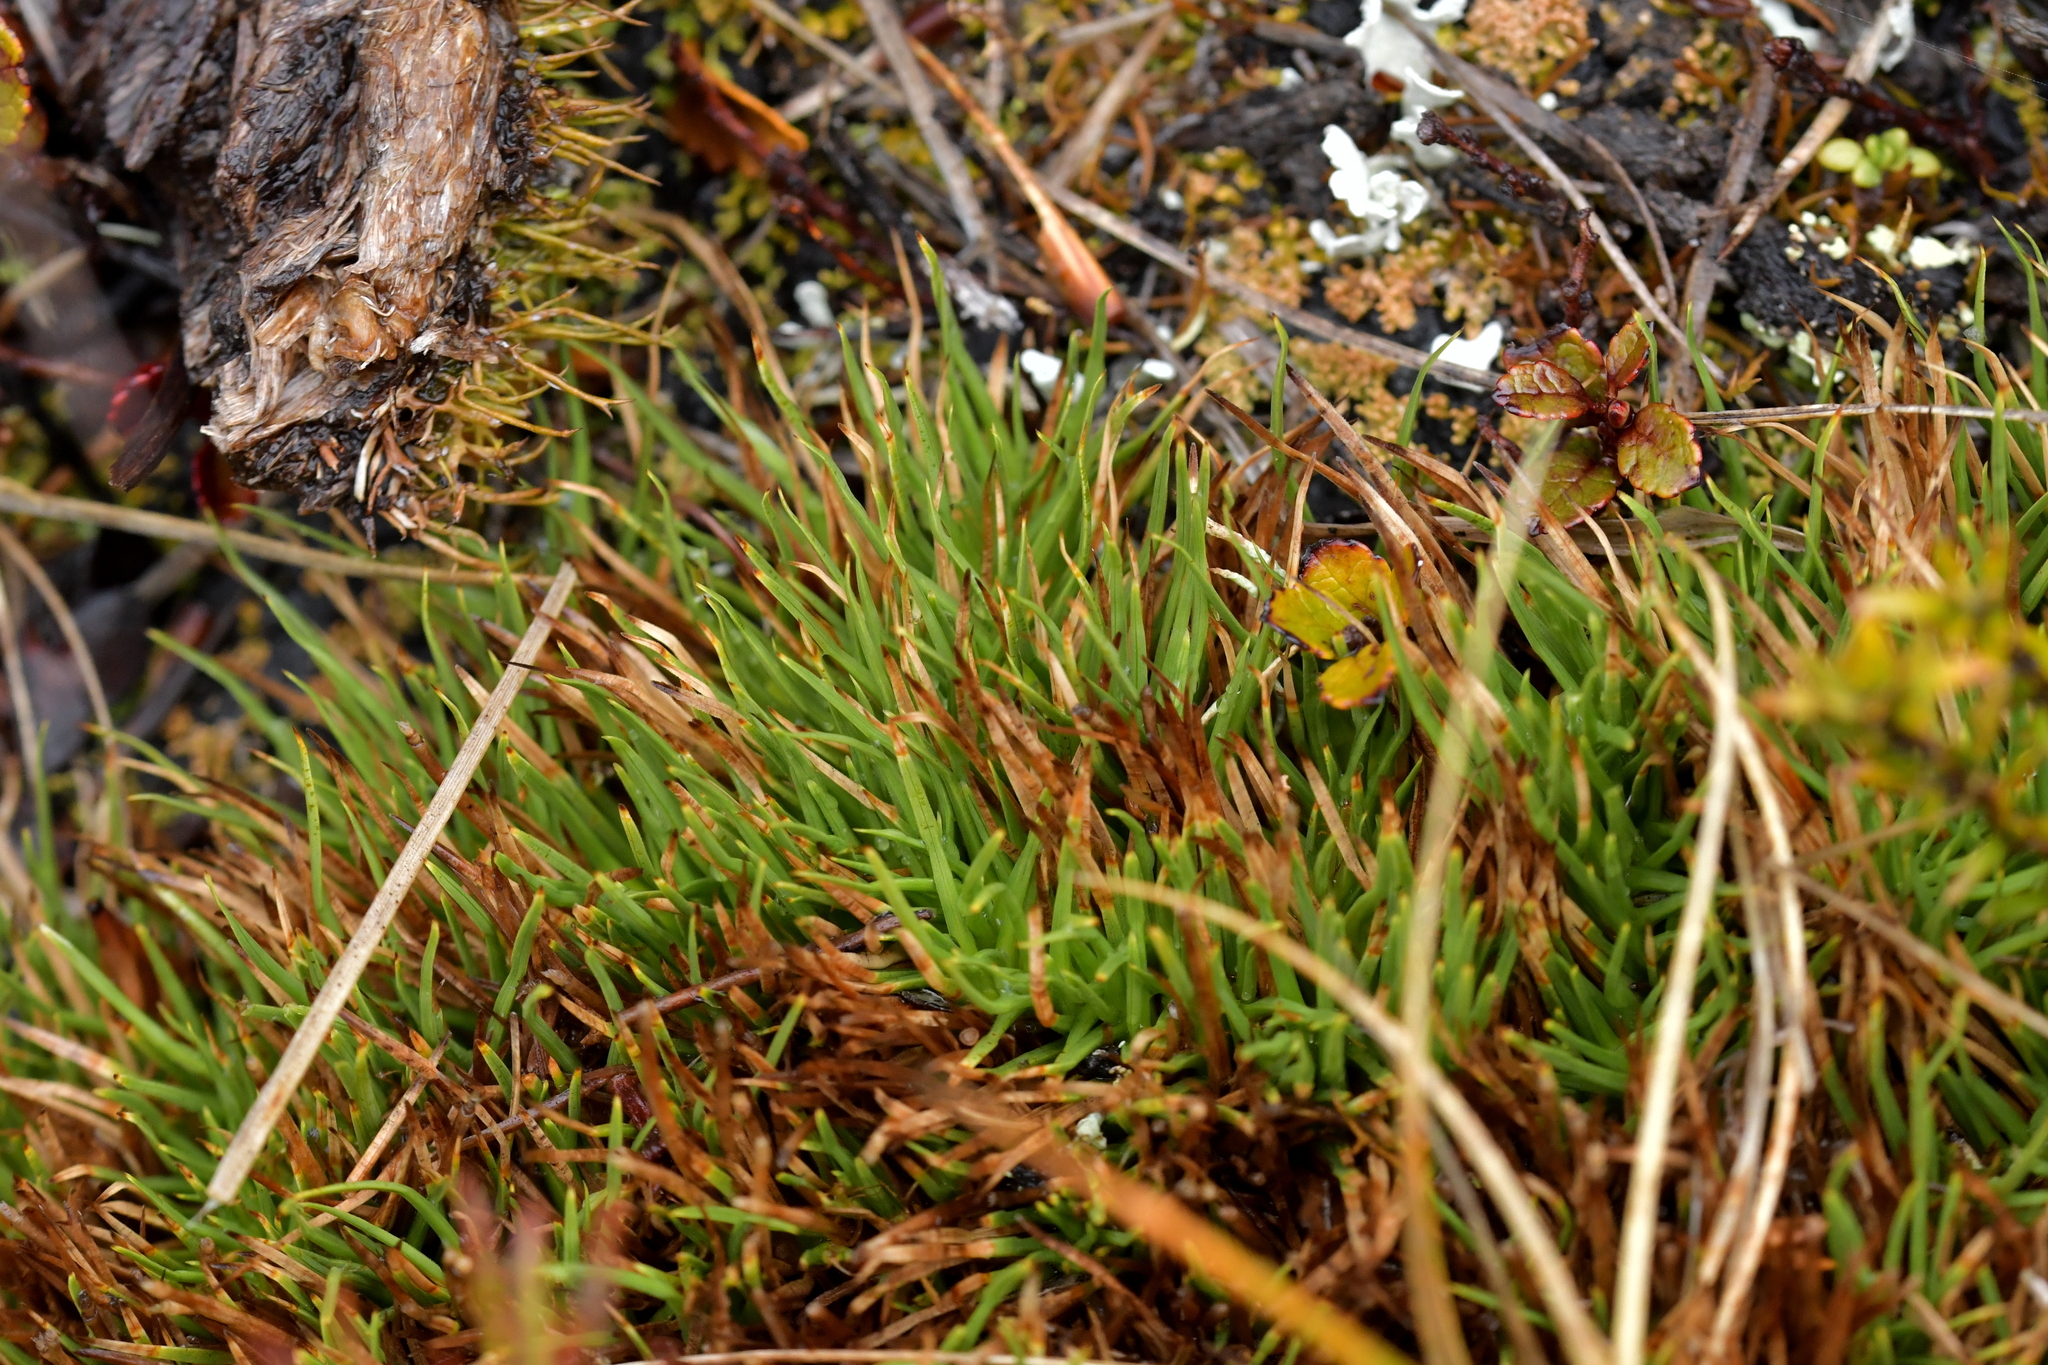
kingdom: Plantae
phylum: Tracheophyta
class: Liliopsida
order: Poales
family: Cyperaceae
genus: Oreobolus
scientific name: Oreobolus pectinatus
